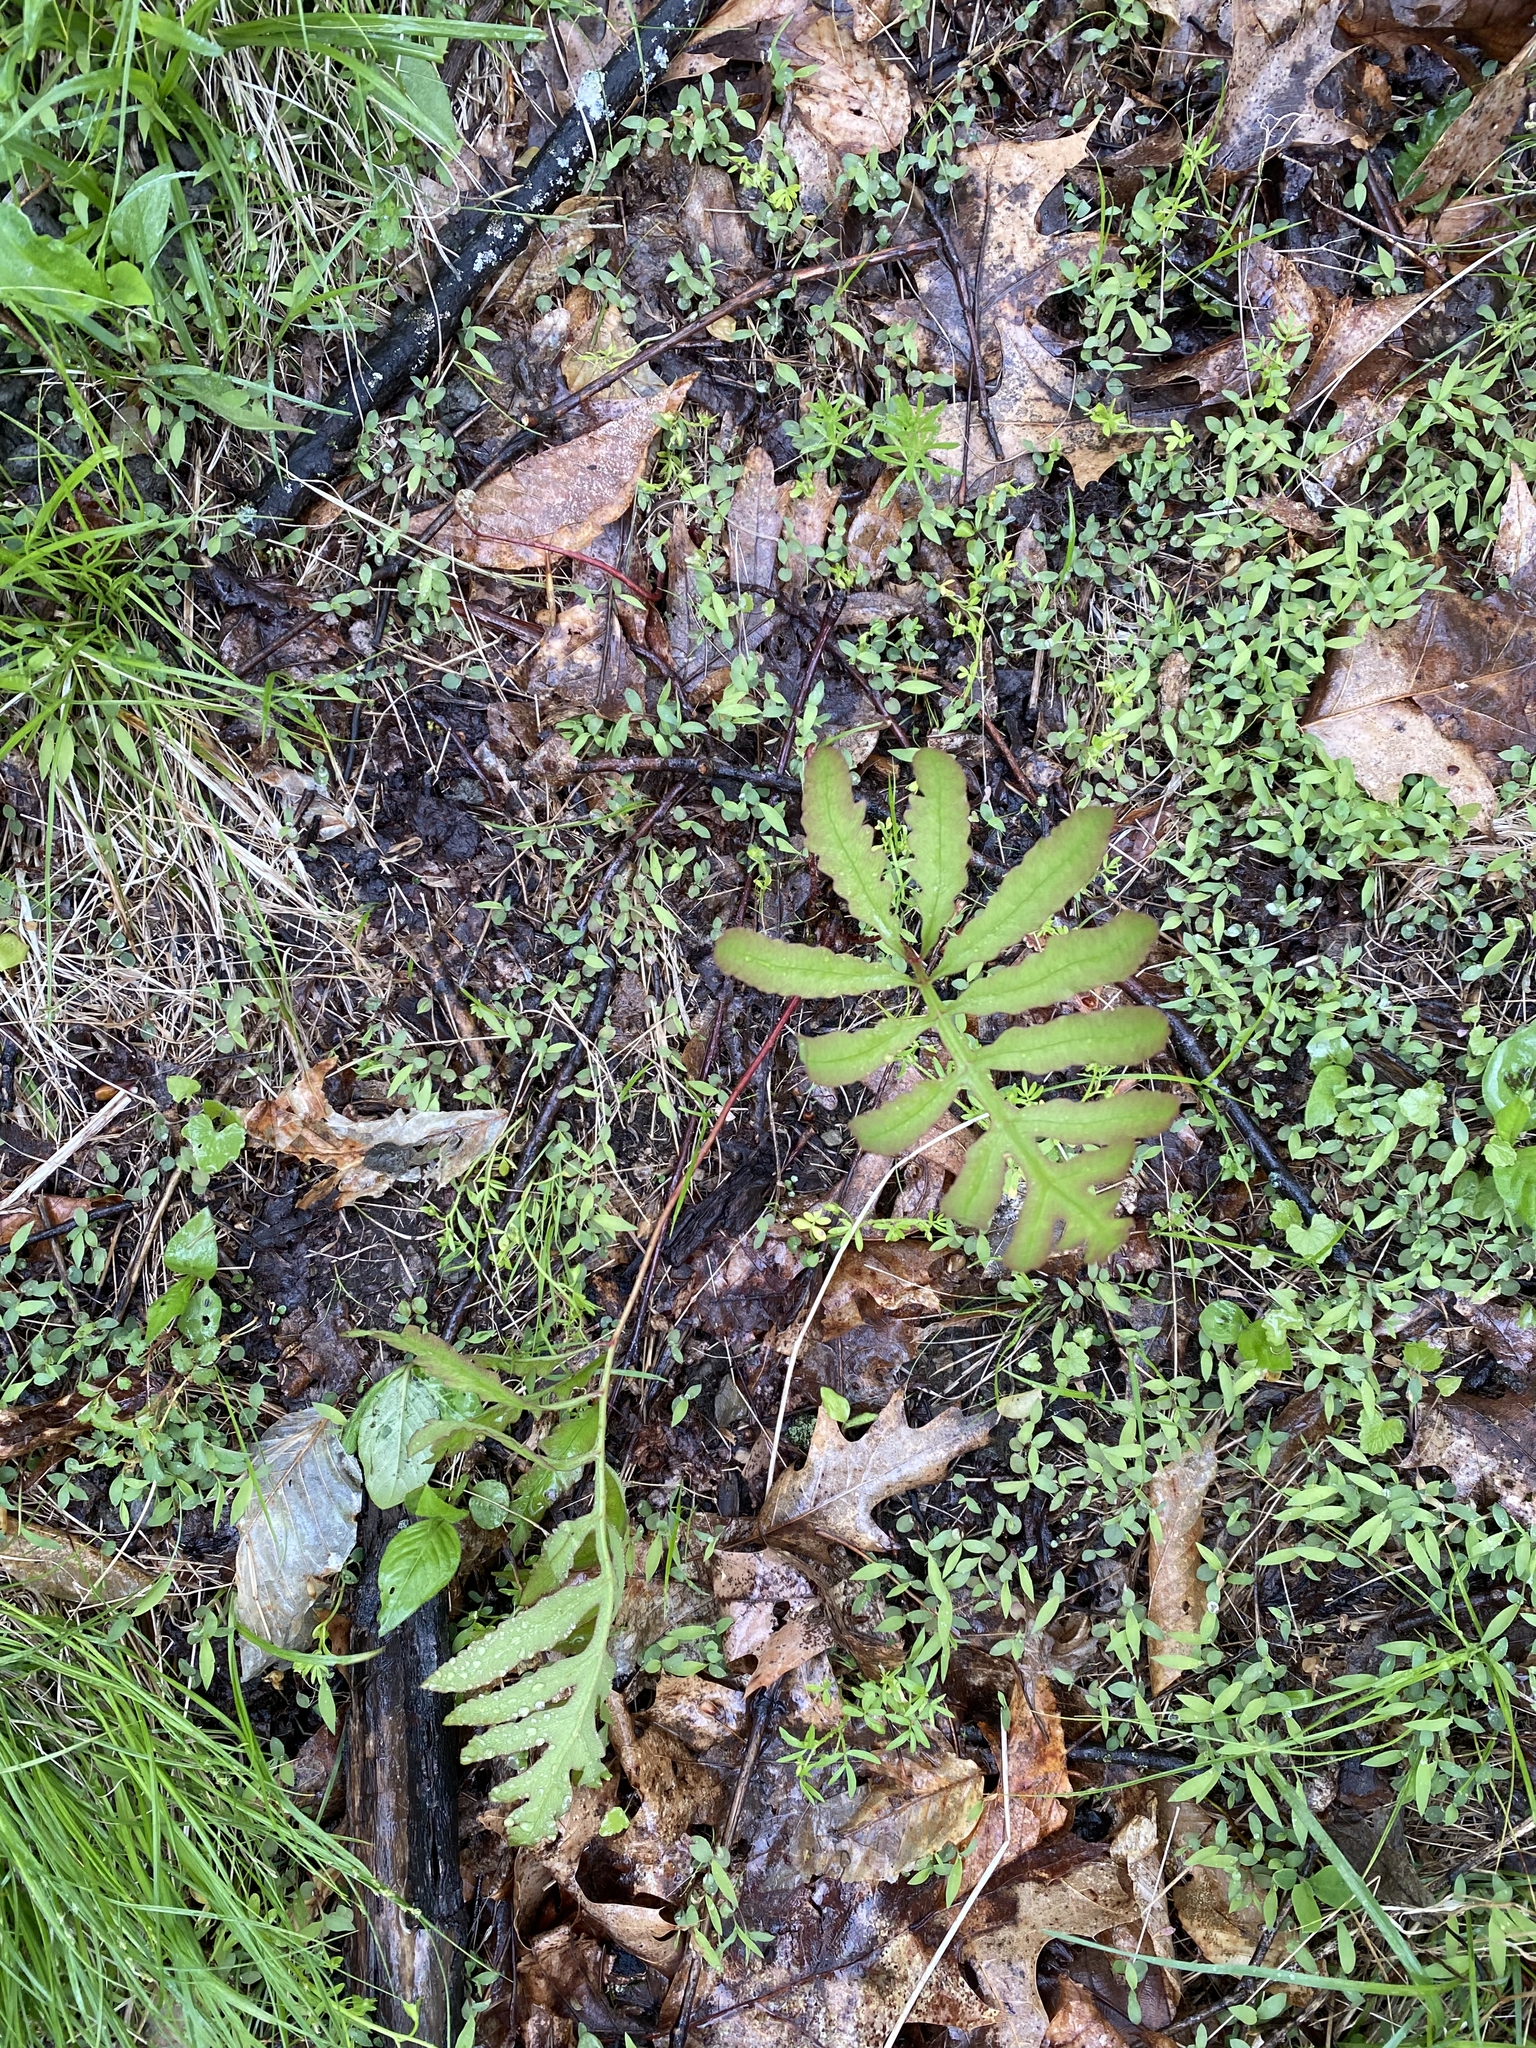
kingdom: Plantae
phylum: Tracheophyta
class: Polypodiopsida
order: Polypodiales
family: Onocleaceae
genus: Onoclea
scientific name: Onoclea sensibilis
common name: Sensitive fern
